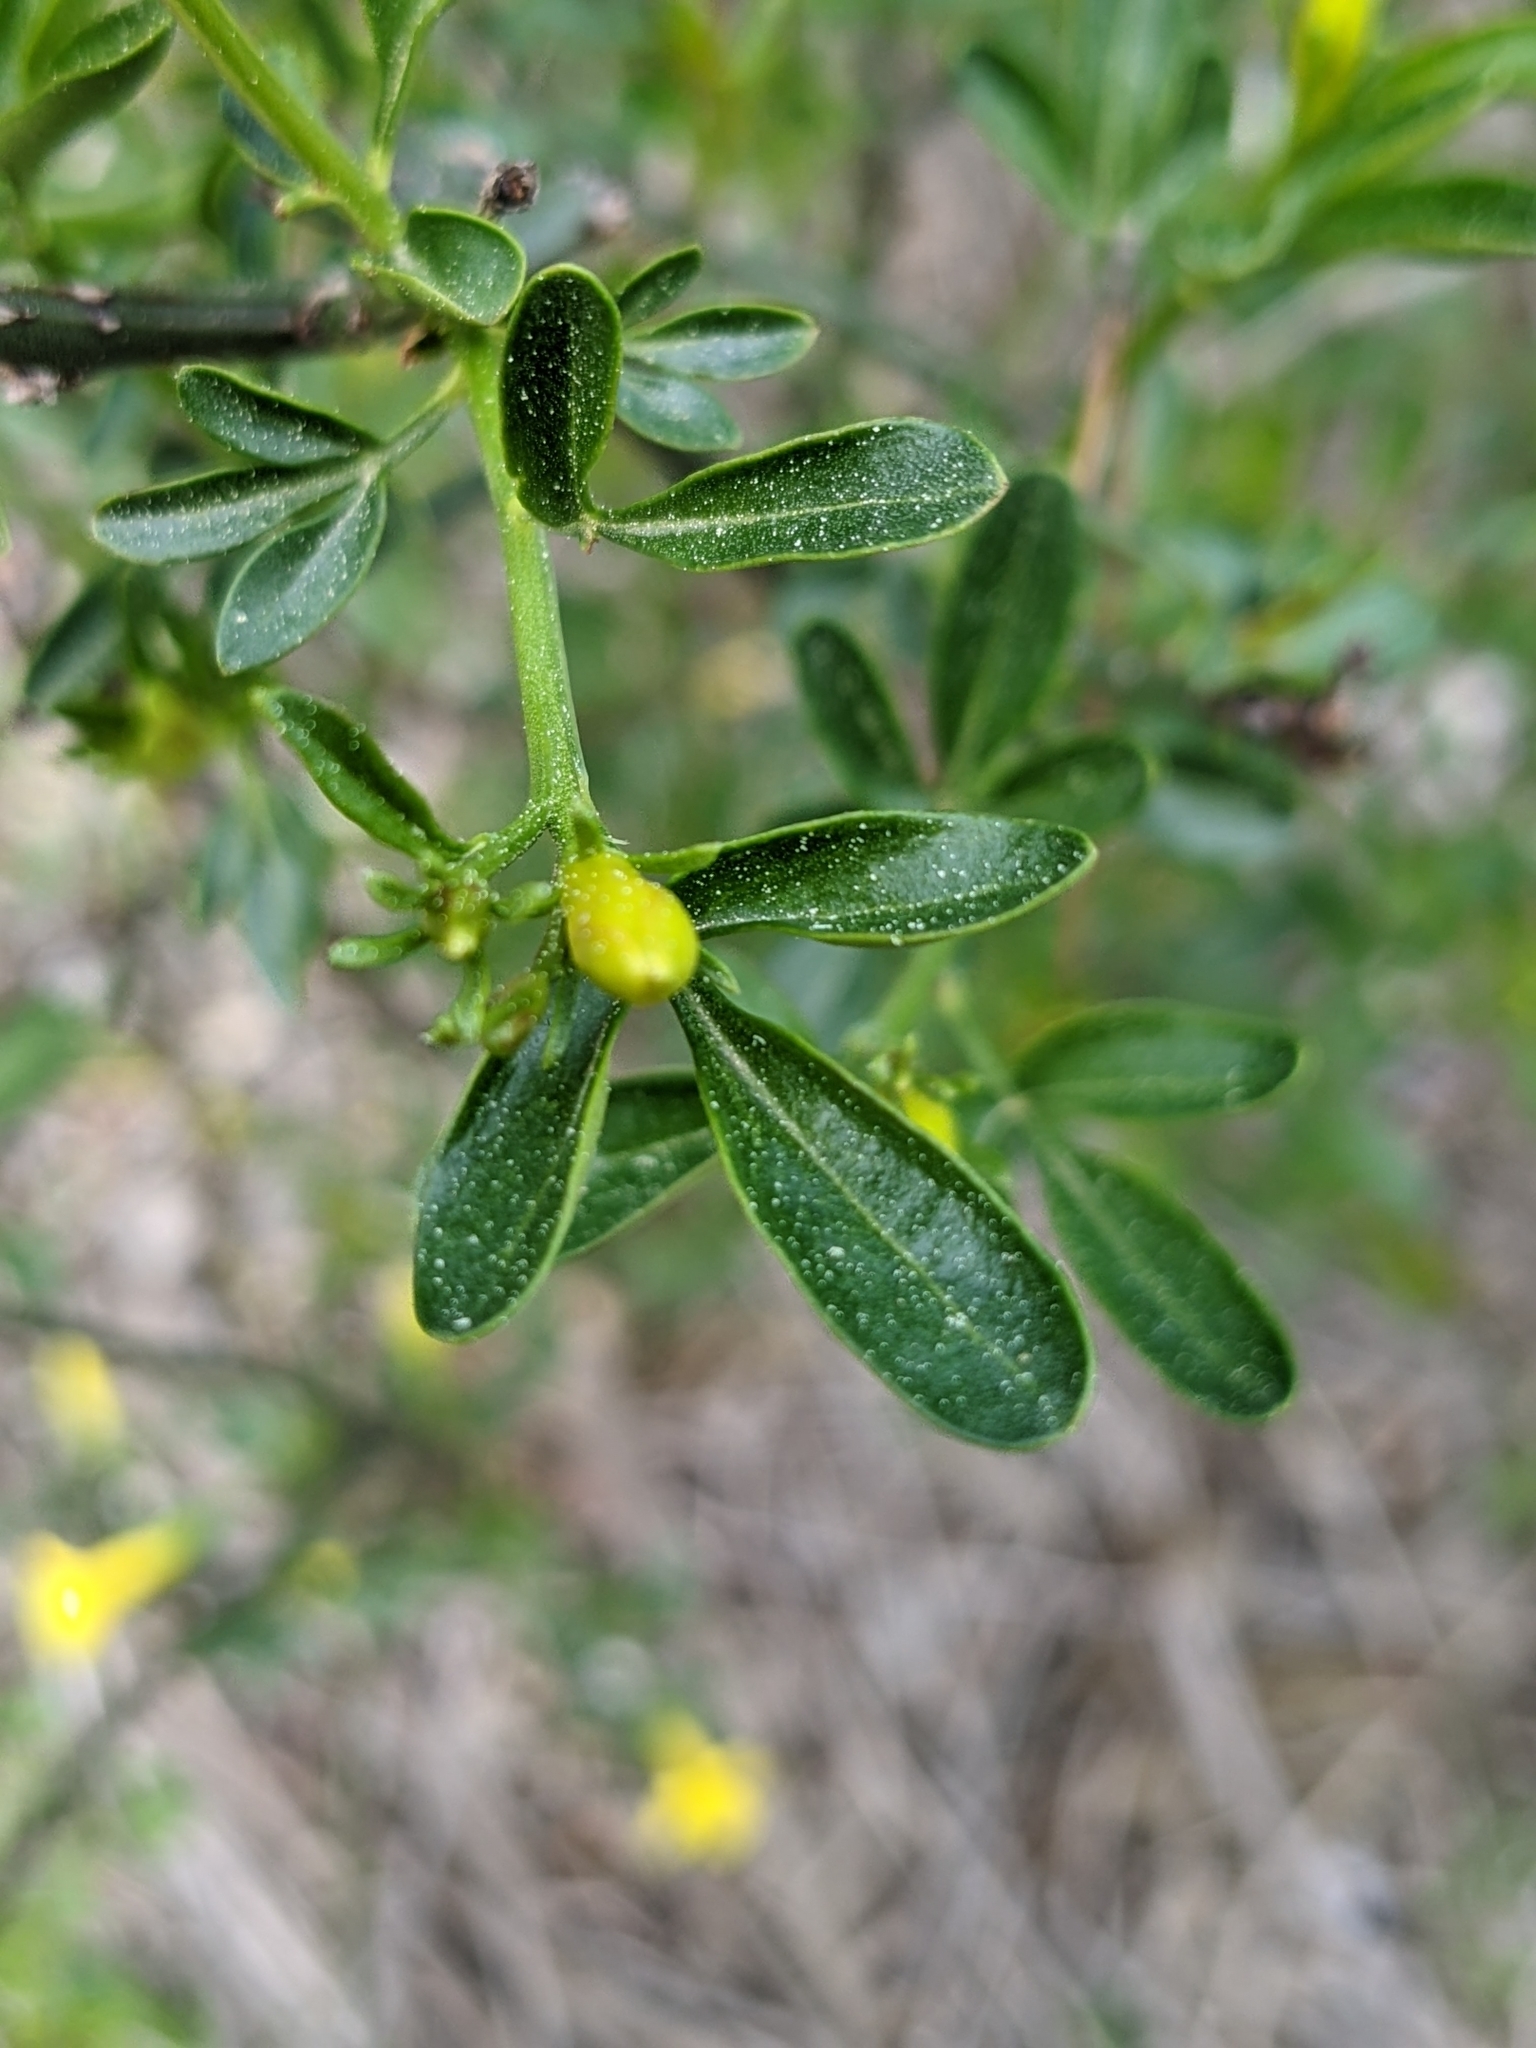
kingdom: Plantae
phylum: Tracheophyta
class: Magnoliopsida
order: Lamiales
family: Oleaceae
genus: Chrysojasminum
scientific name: Chrysojasminum fruticans
